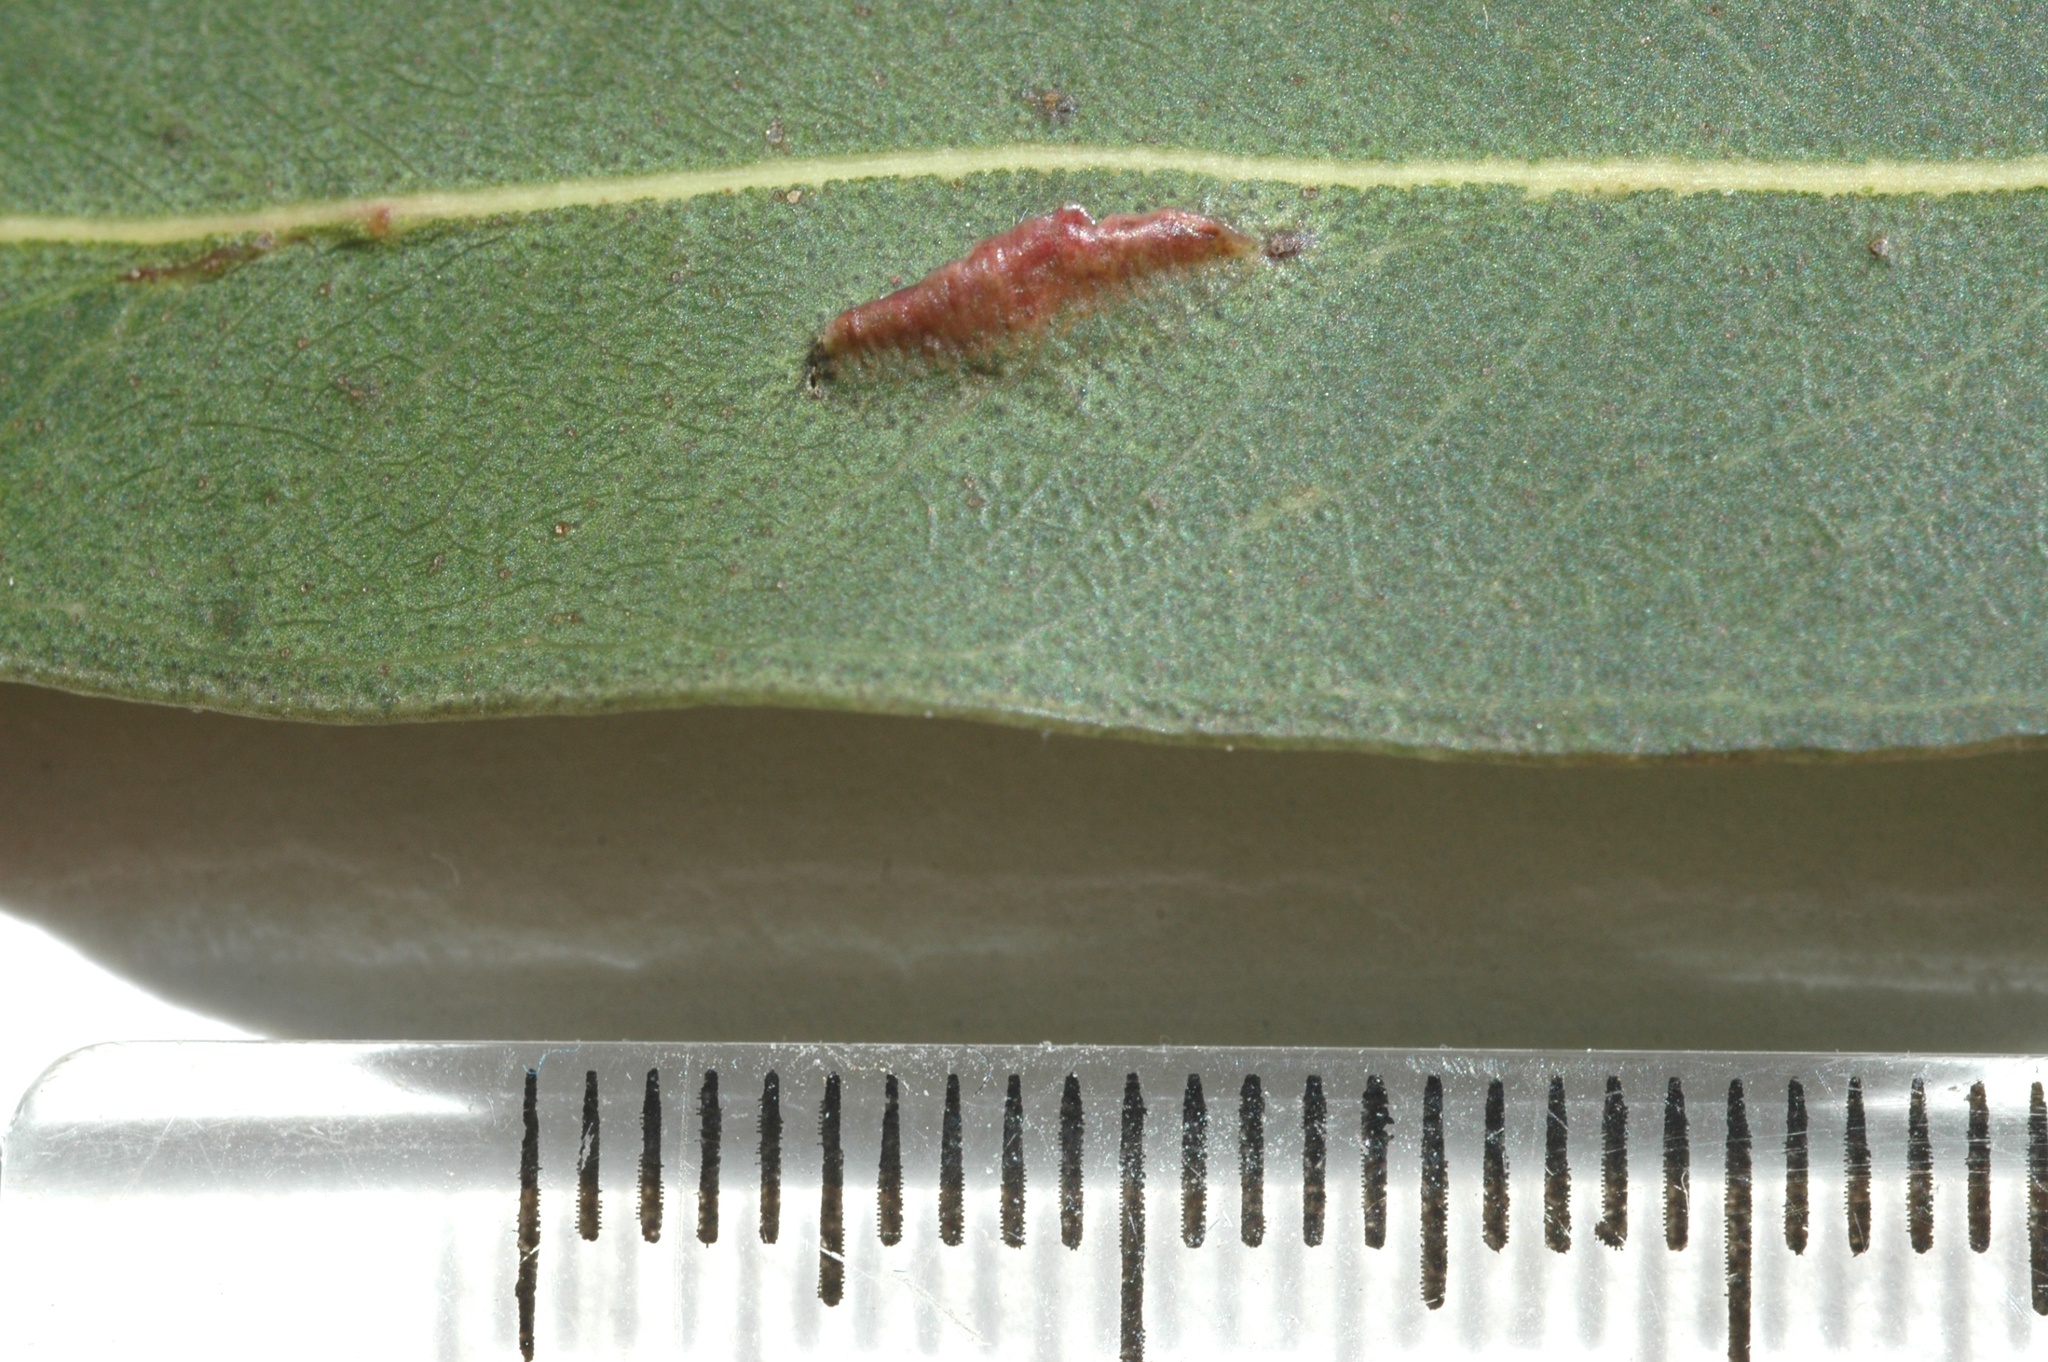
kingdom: Animalia
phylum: Arthropoda
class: Insecta
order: Hymenoptera
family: Pteromalidae
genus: Nambouria
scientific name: Nambouria xanthops
